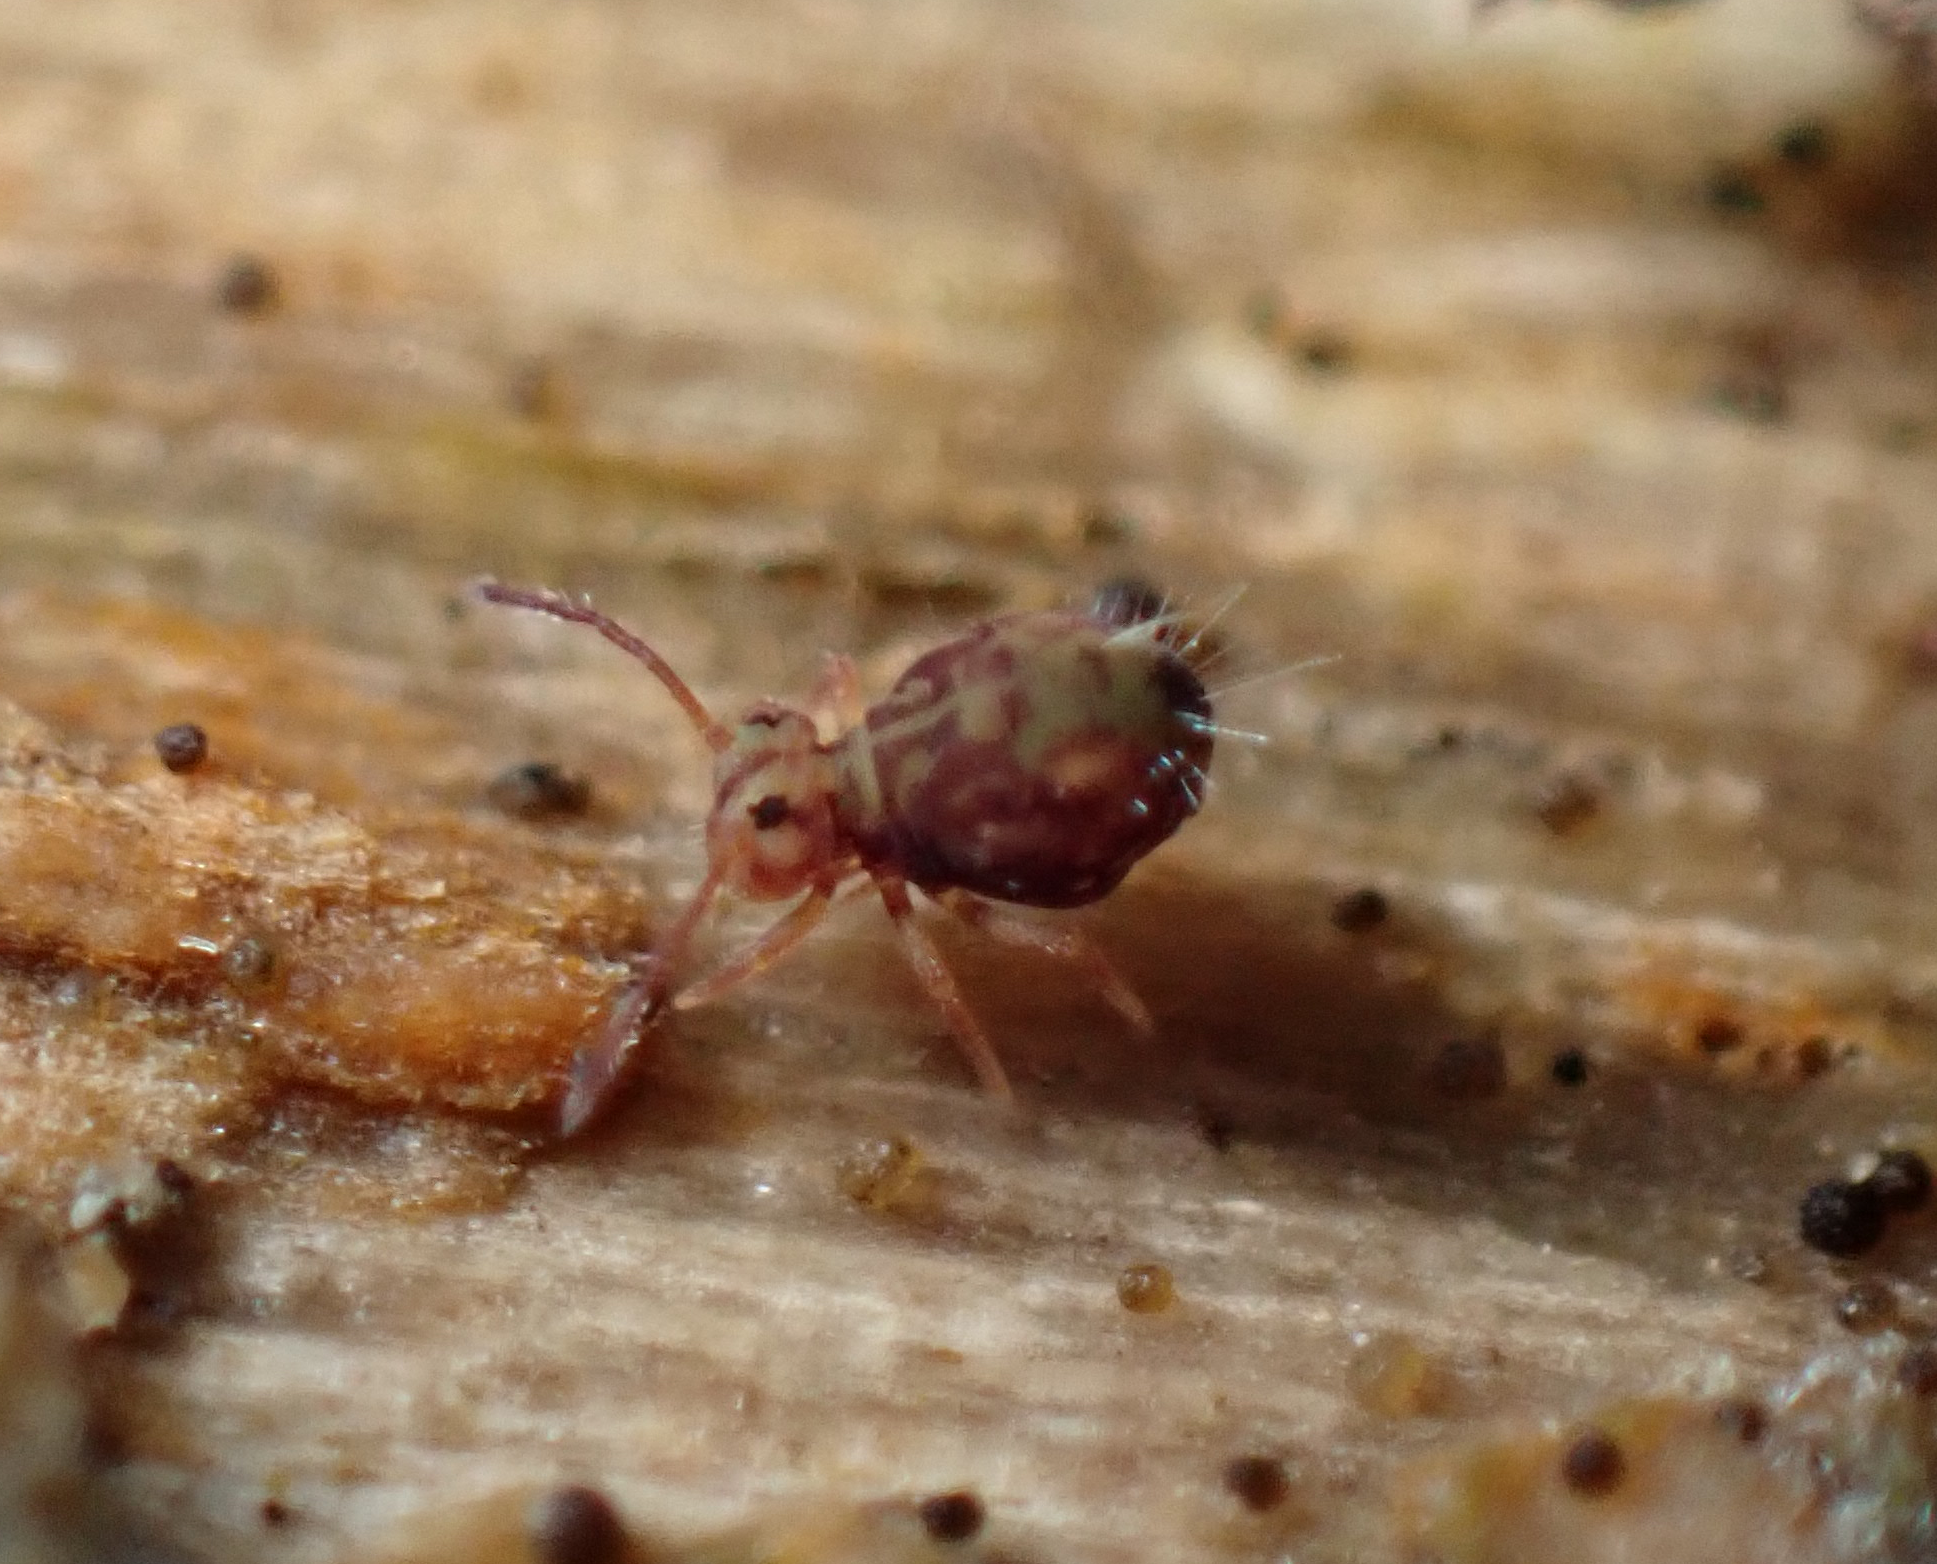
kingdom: Animalia
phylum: Arthropoda
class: Collembola
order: Symphypleona
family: Dicyrtomidae
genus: Dicyrtomina
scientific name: Dicyrtomina minuta
